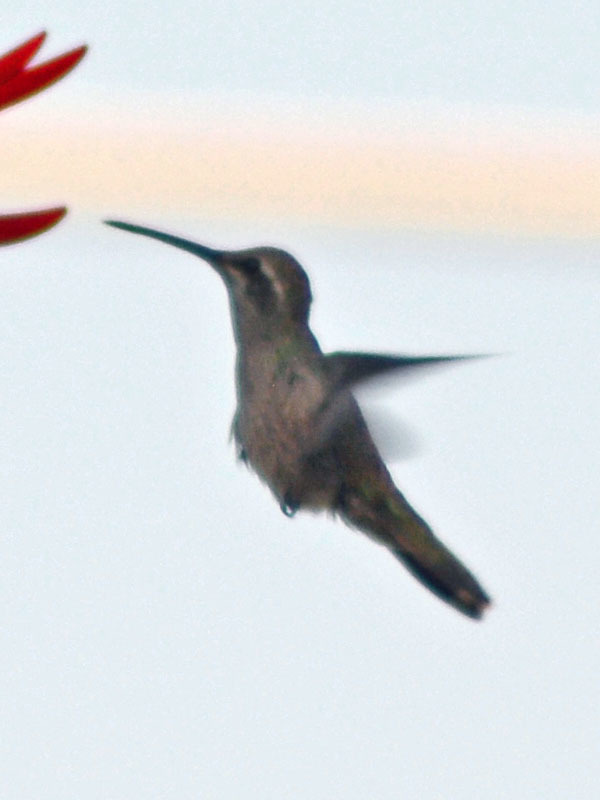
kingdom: Animalia
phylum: Chordata
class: Aves
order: Apodiformes
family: Trochilidae
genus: Cynanthus
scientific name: Cynanthus latirostris
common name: Broad-billed hummingbird
